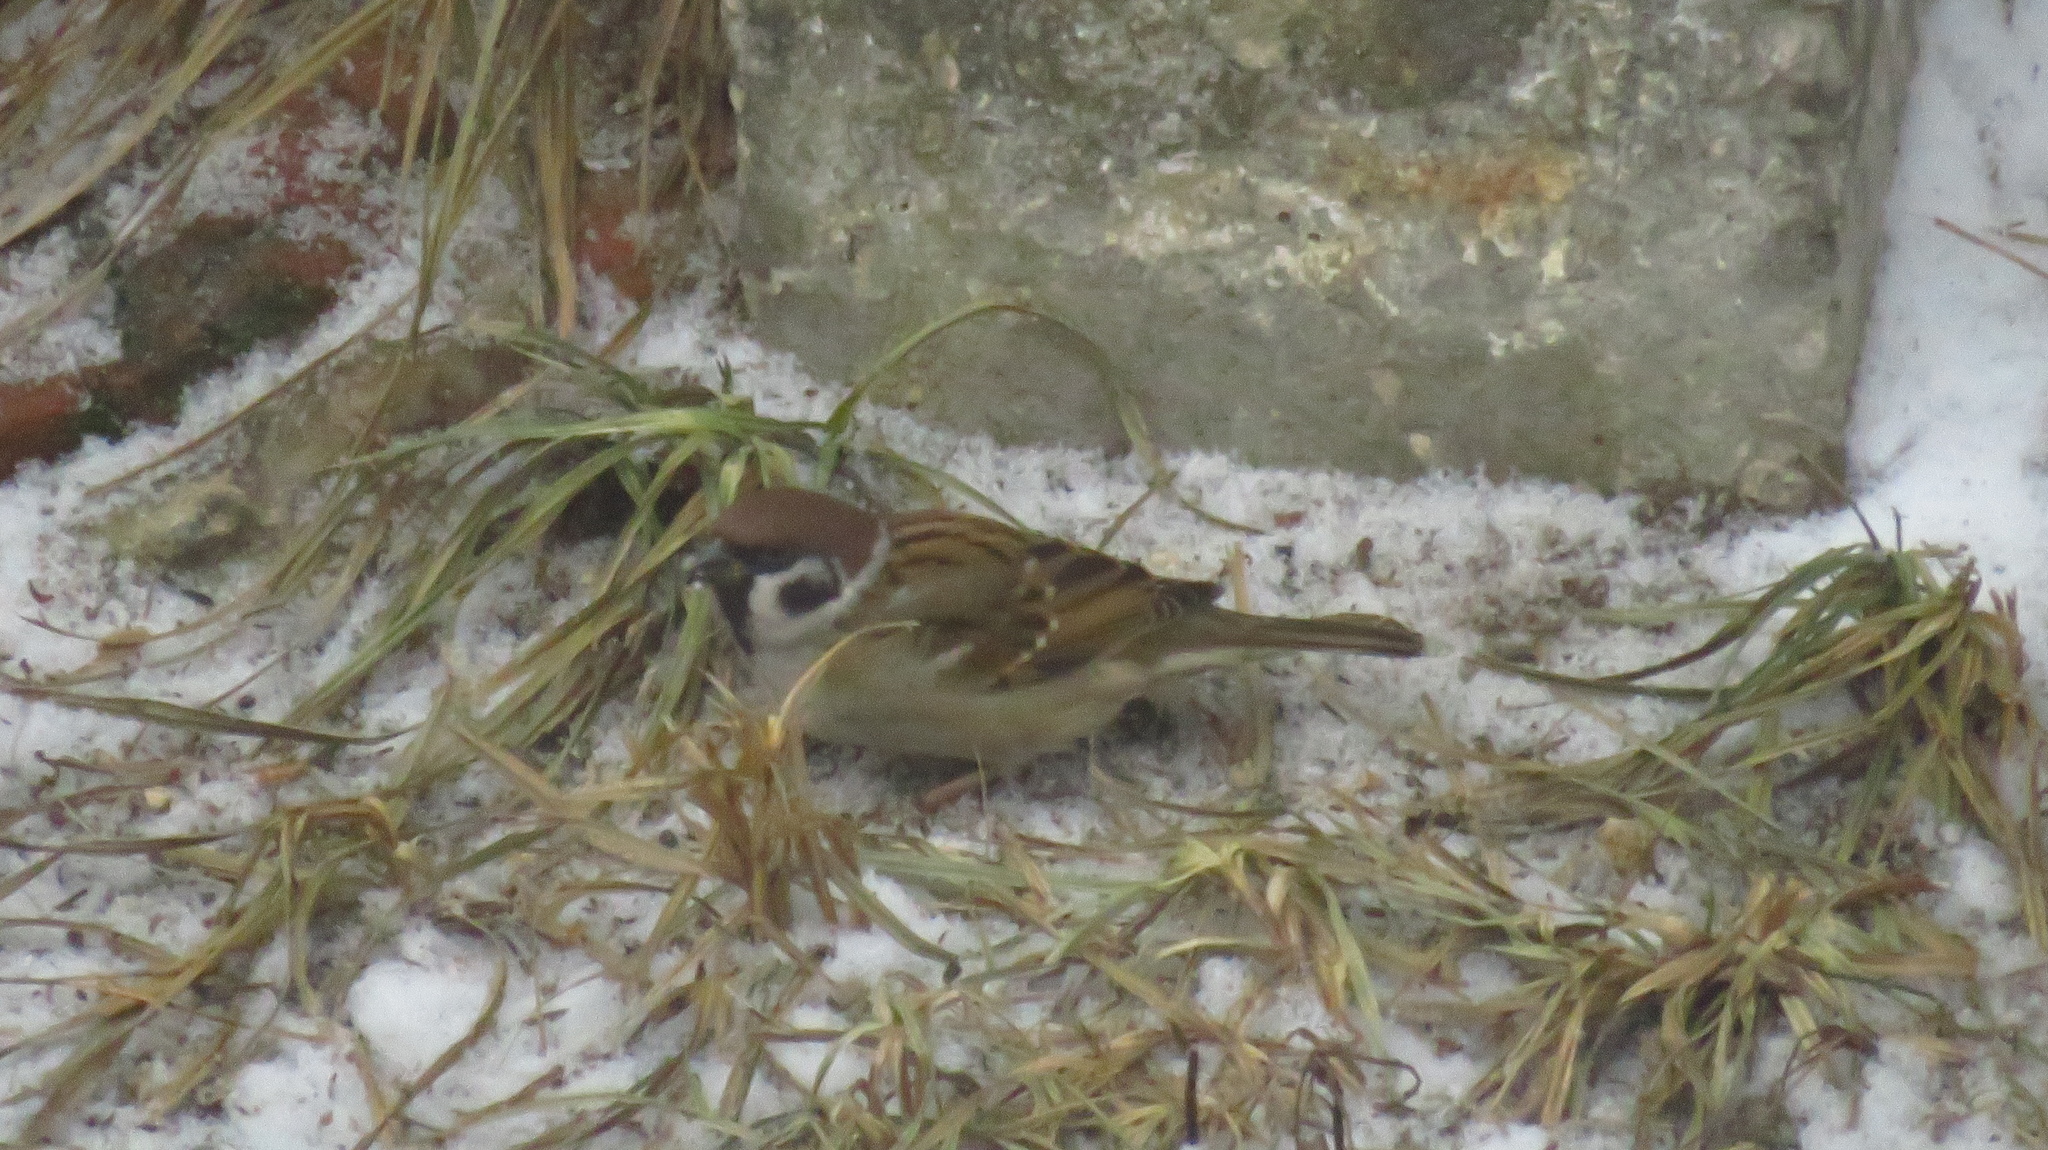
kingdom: Animalia
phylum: Chordata
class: Aves
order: Passeriformes
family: Passeridae
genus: Passer
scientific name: Passer montanus
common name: Eurasian tree sparrow
